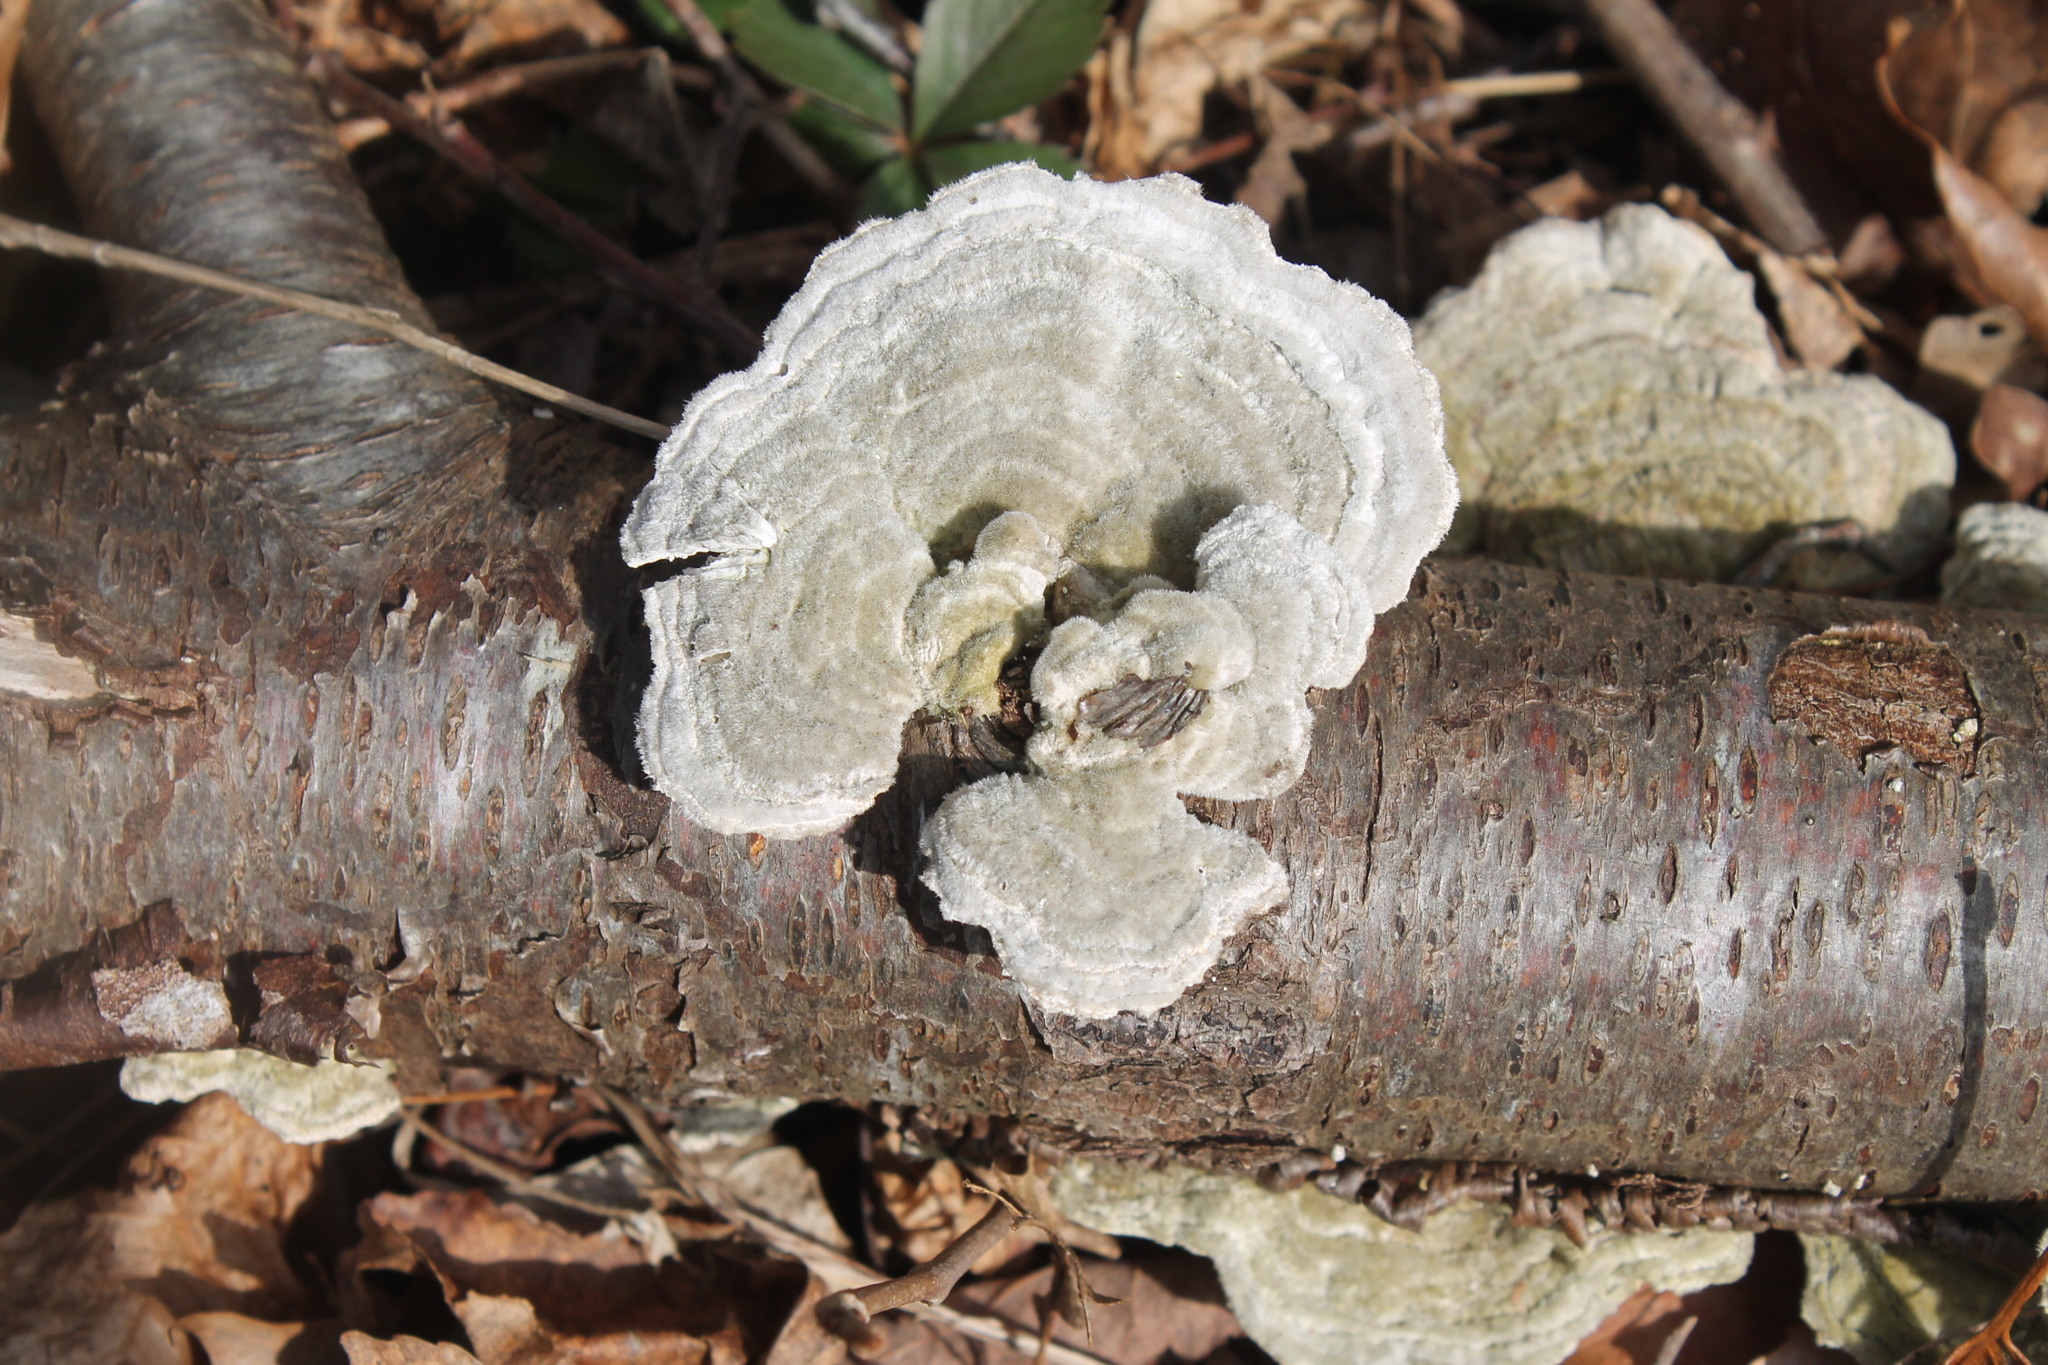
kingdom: Fungi
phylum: Basidiomycota
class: Agaricomycetes
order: Polyporales
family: Polyporaceae
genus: Trametes
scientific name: Trametes hirsuta
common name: Hairy bracket
